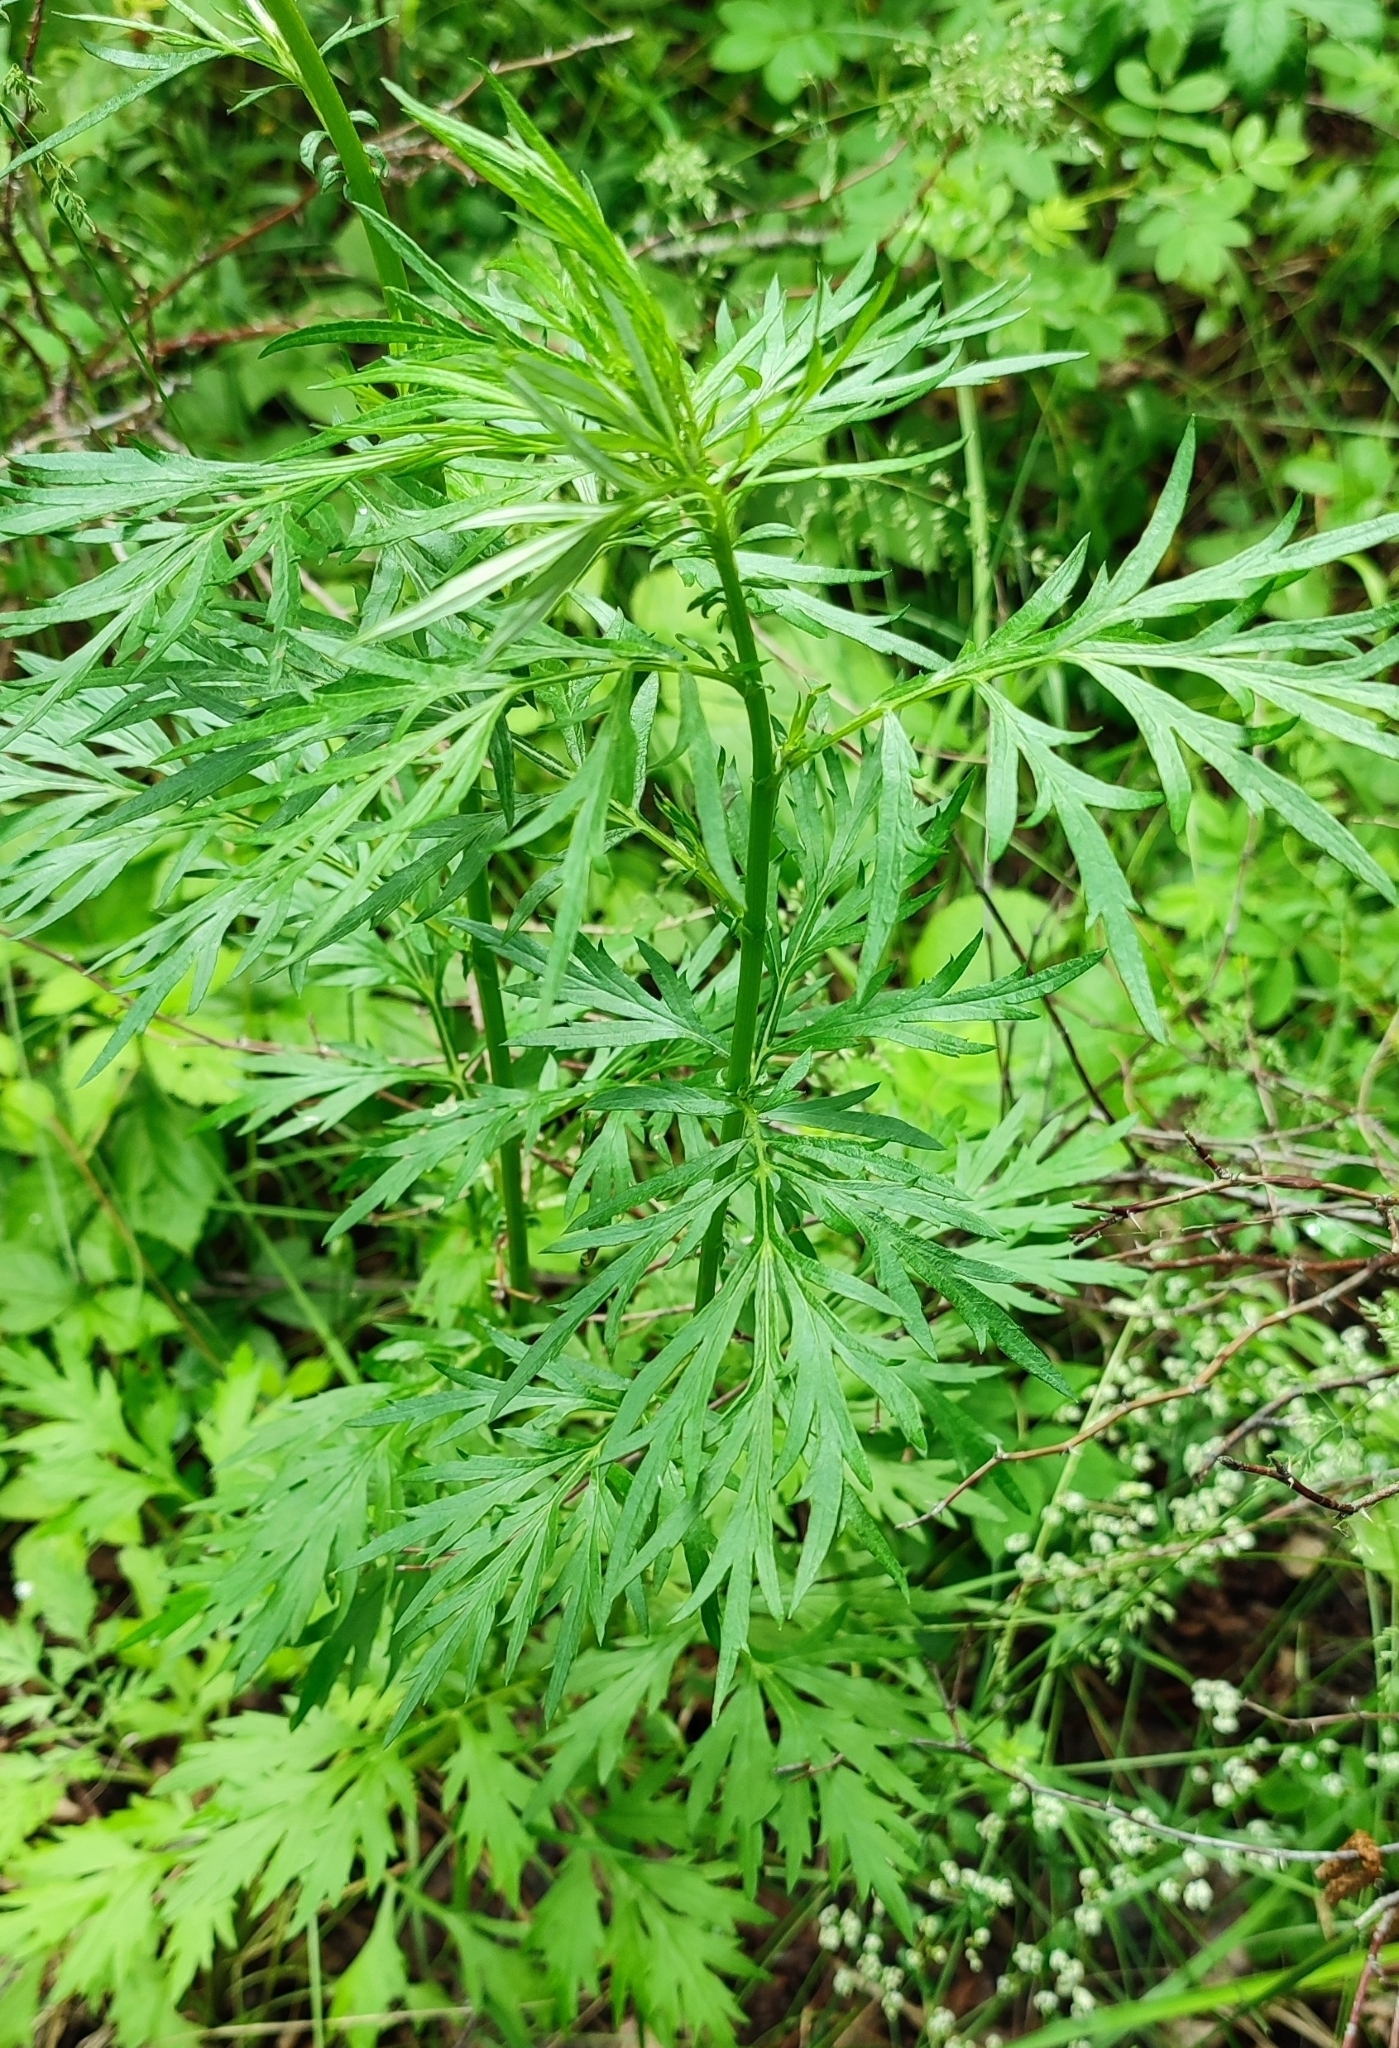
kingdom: Plantae
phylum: Tracheophyta
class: Magnoliopsida
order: Asterales
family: Asteraceae
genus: Artemisia
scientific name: Artemisia vulgaris
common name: Mugwort
